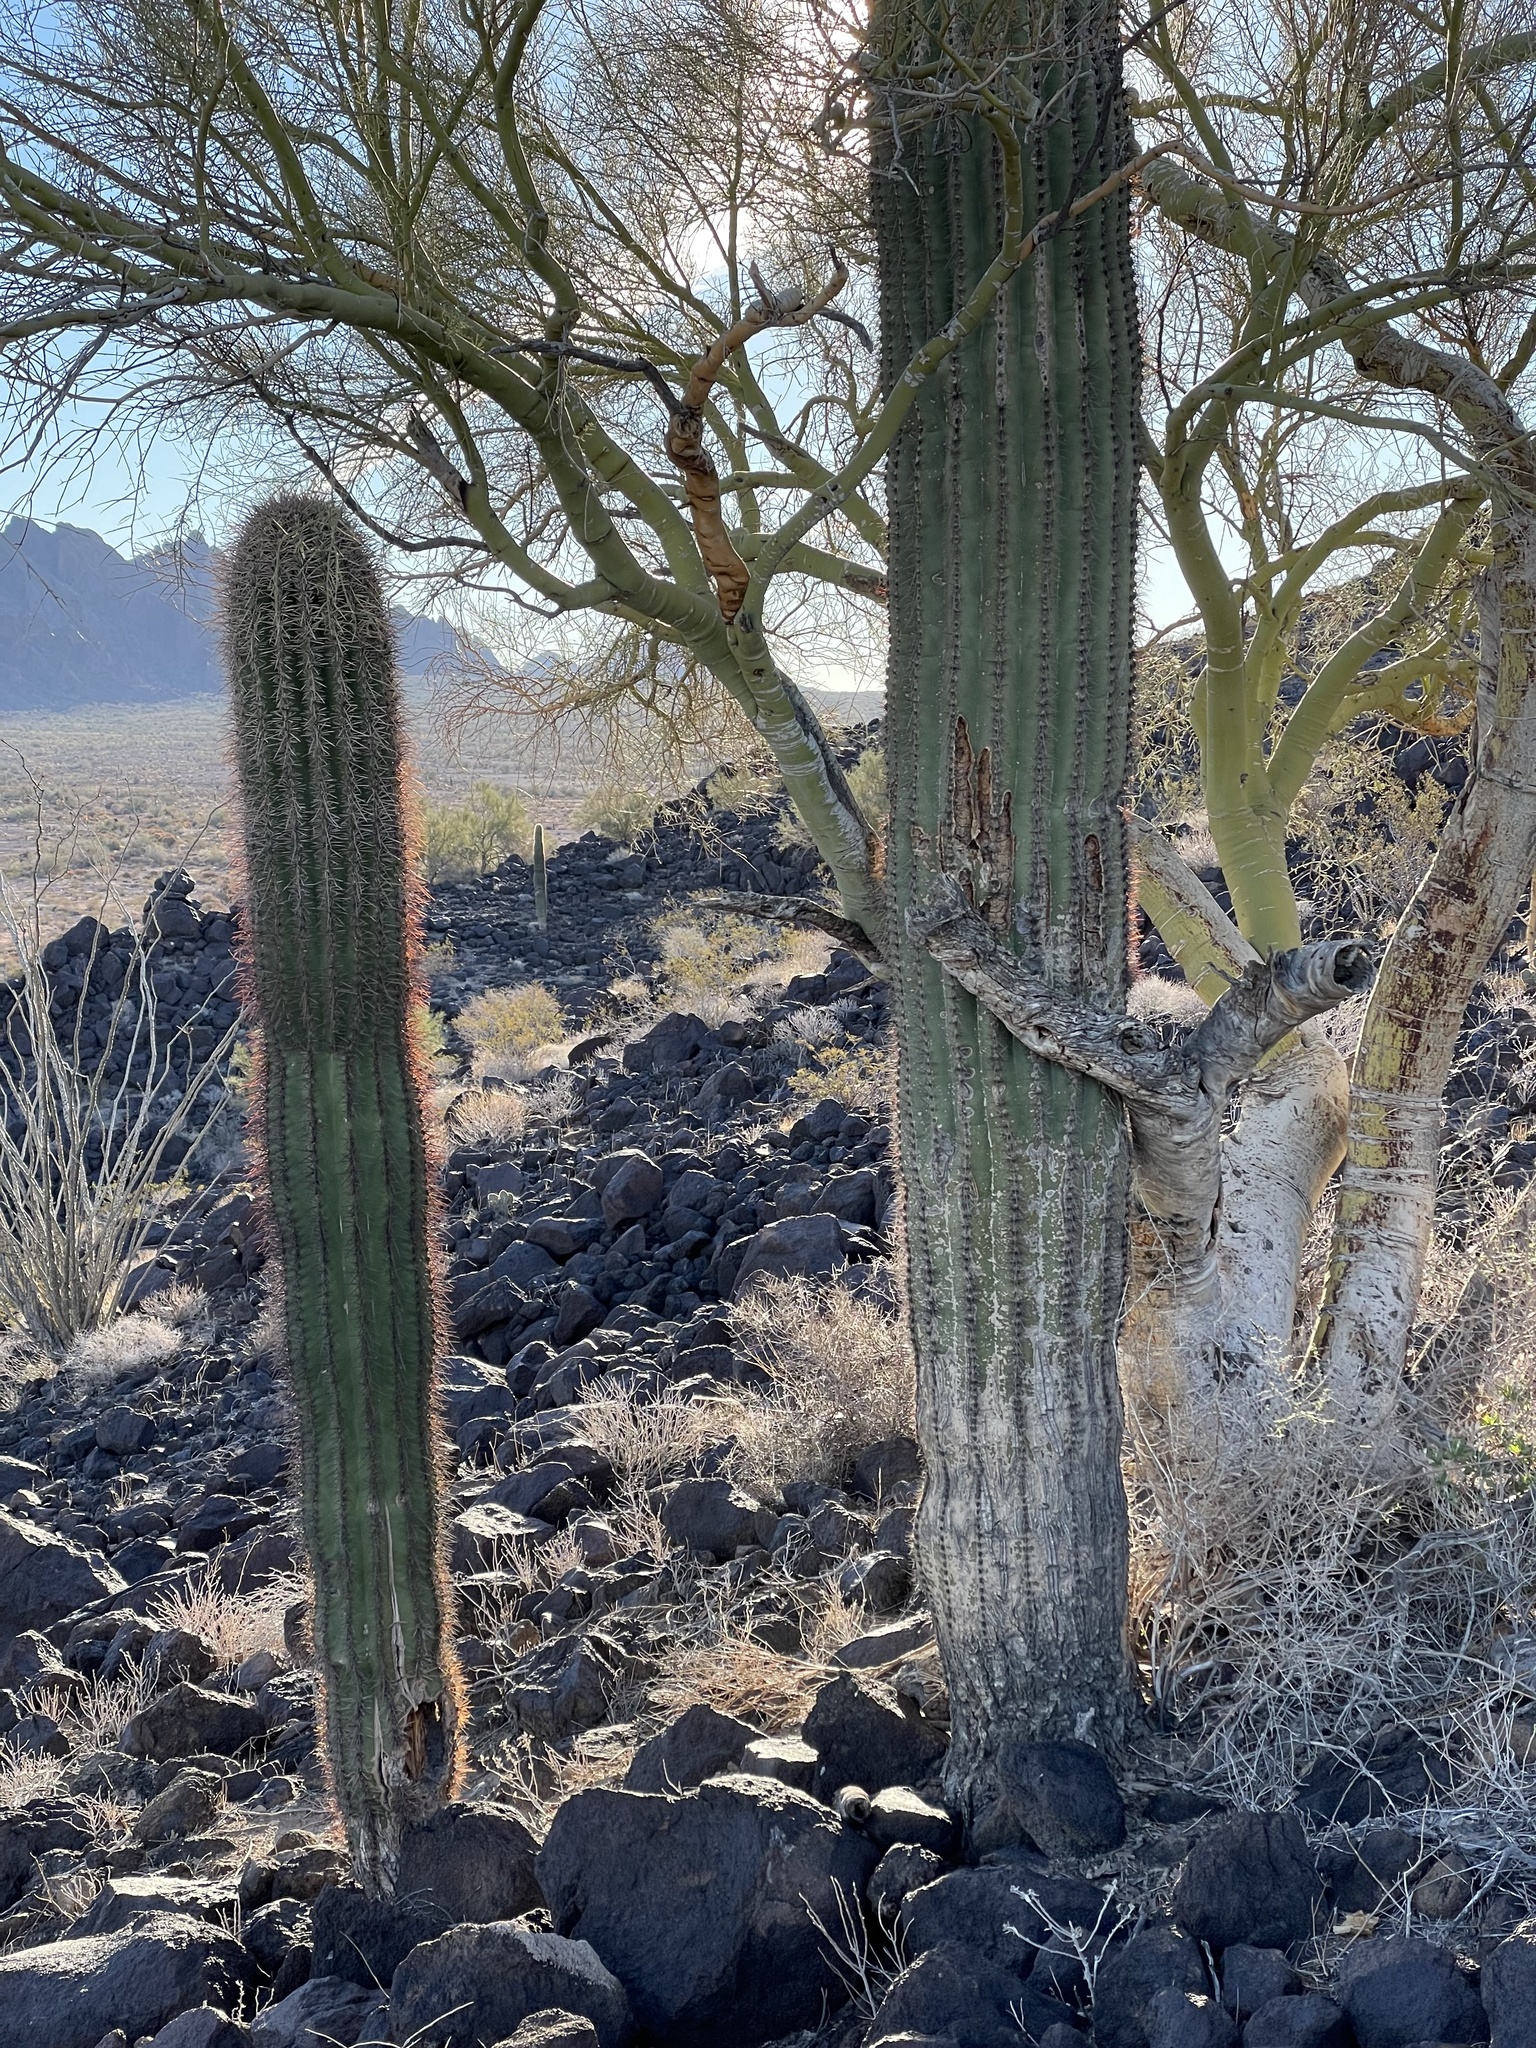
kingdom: Plantae
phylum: Tracheophyta
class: Magnoliopsida
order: Caryophyllales
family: Cactaceae
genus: Carnegiea
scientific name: Carnegiea gigantea
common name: Saguaro
